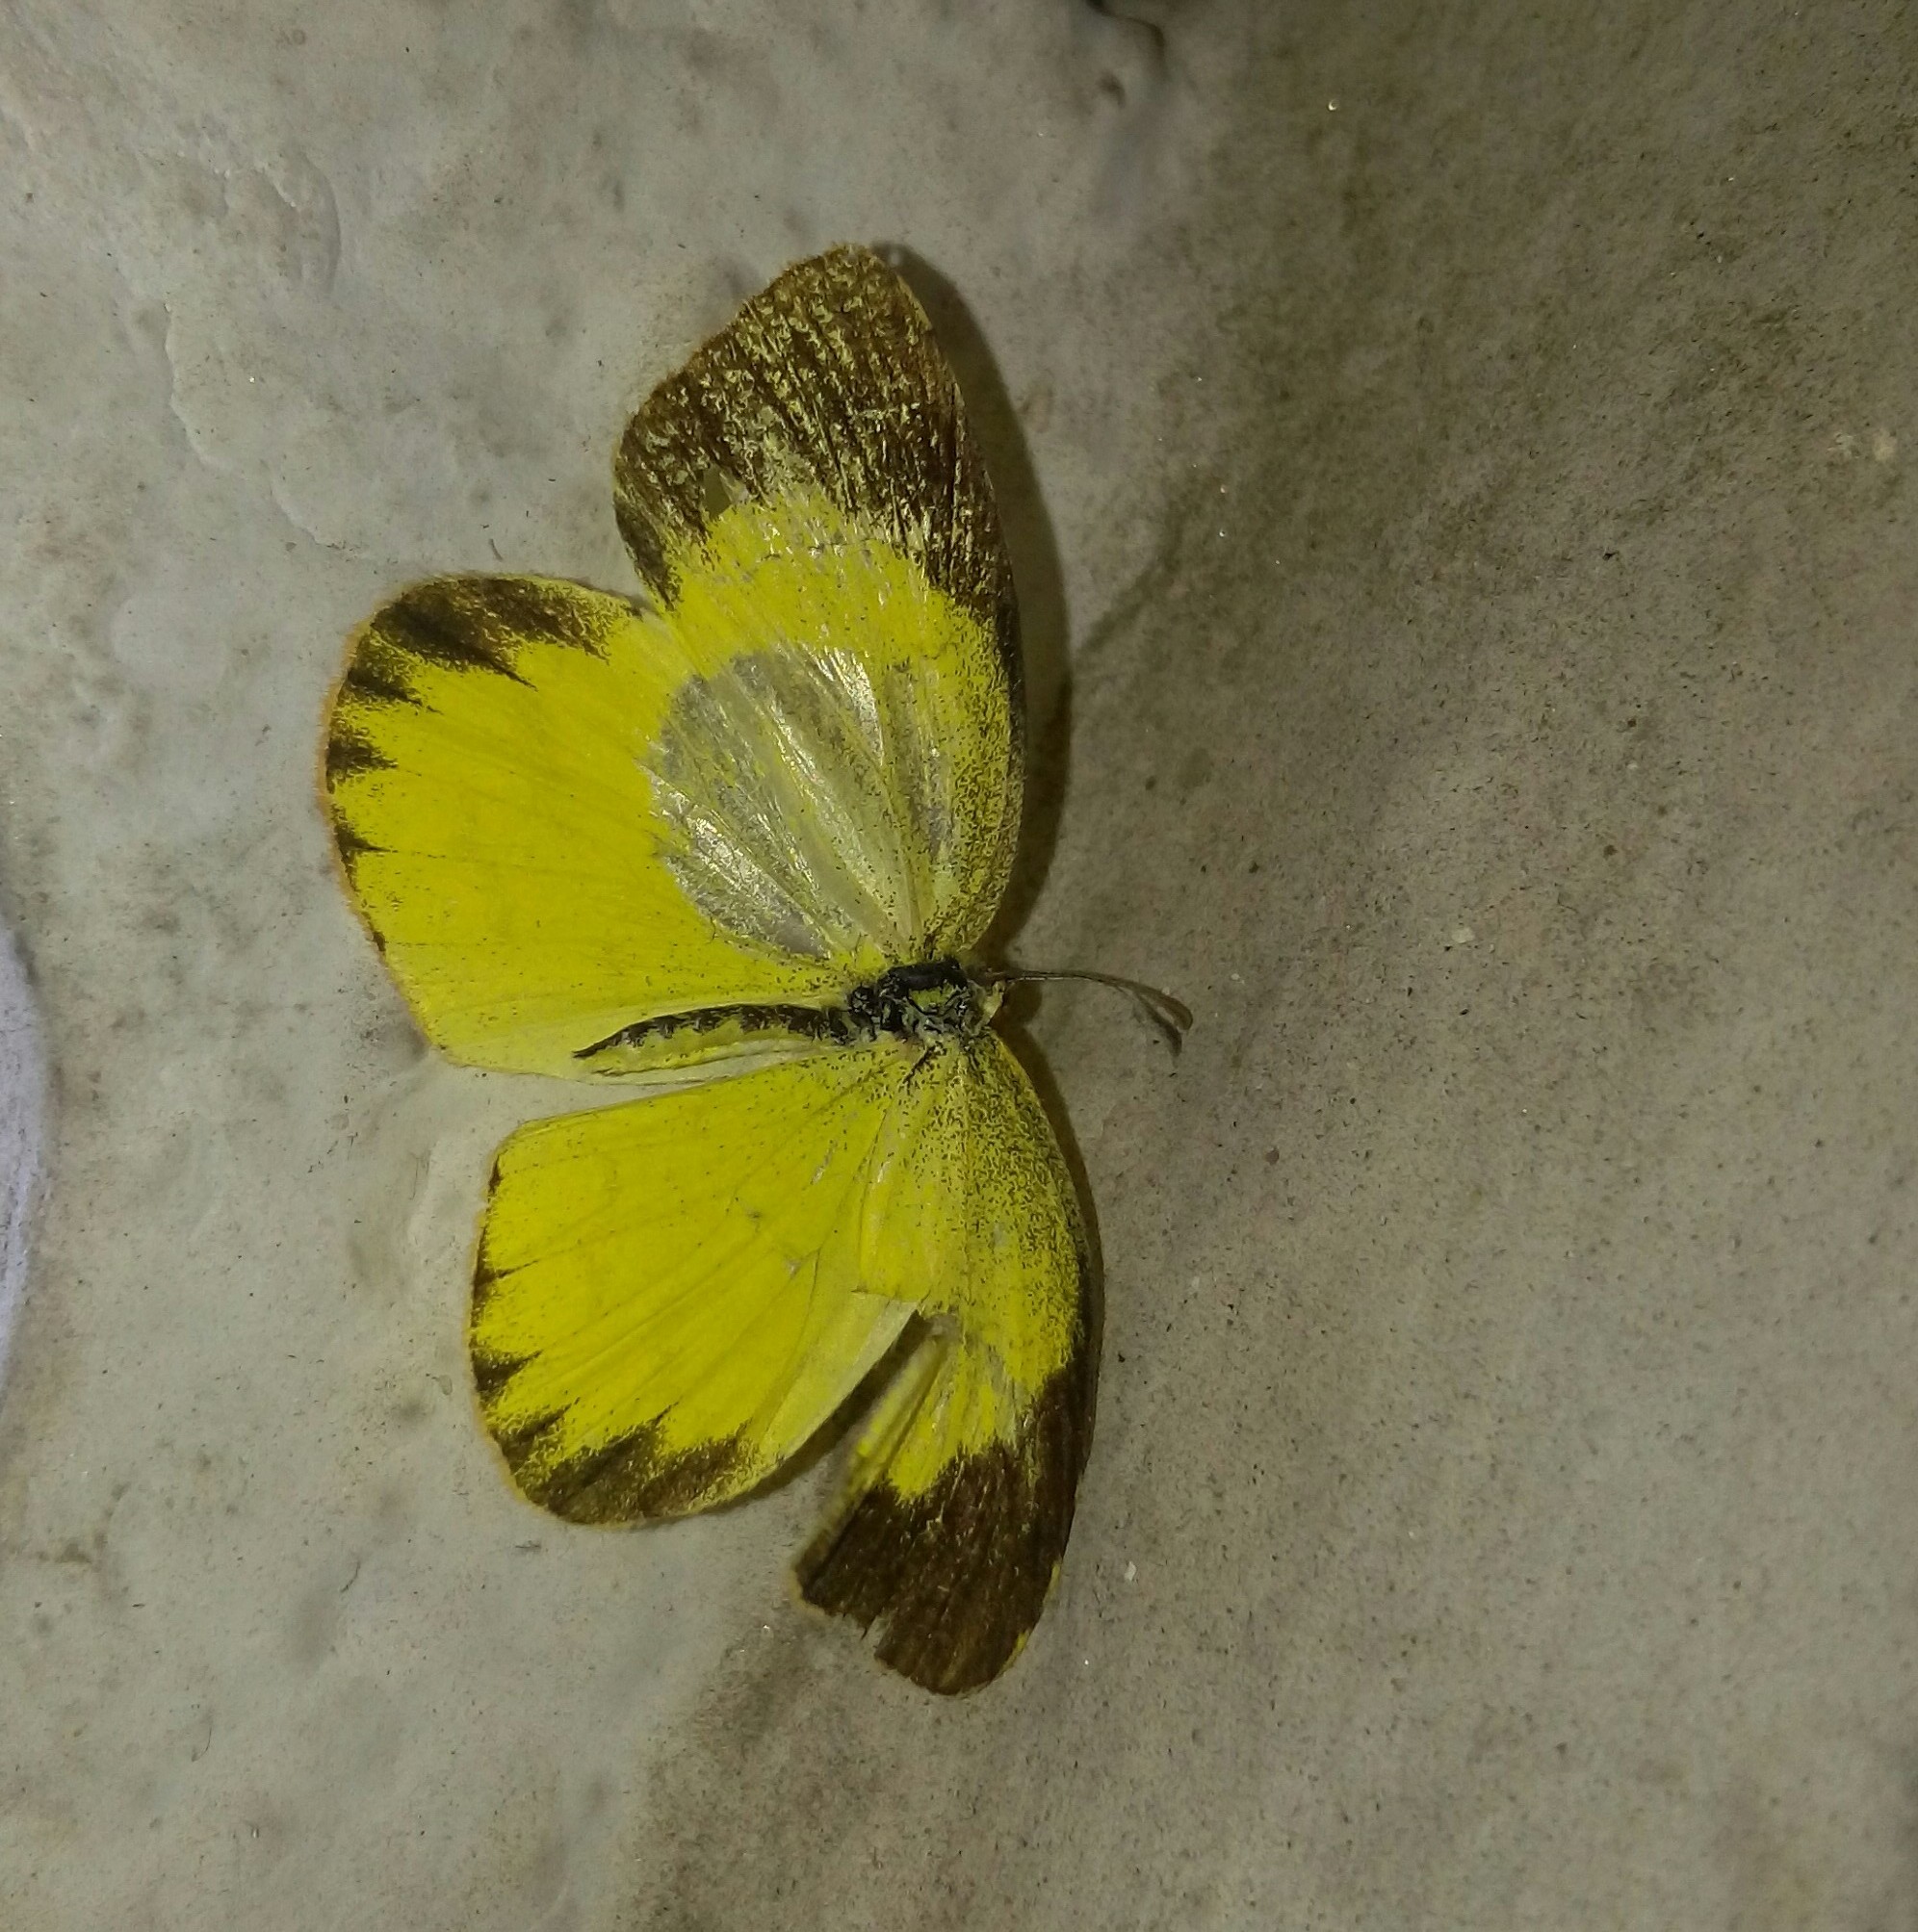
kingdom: Animalia
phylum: Arthropoda
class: Insecta
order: Lepidoptera
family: Pieridae
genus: Eurema
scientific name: Eurema brigitta
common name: Small grass yellow
